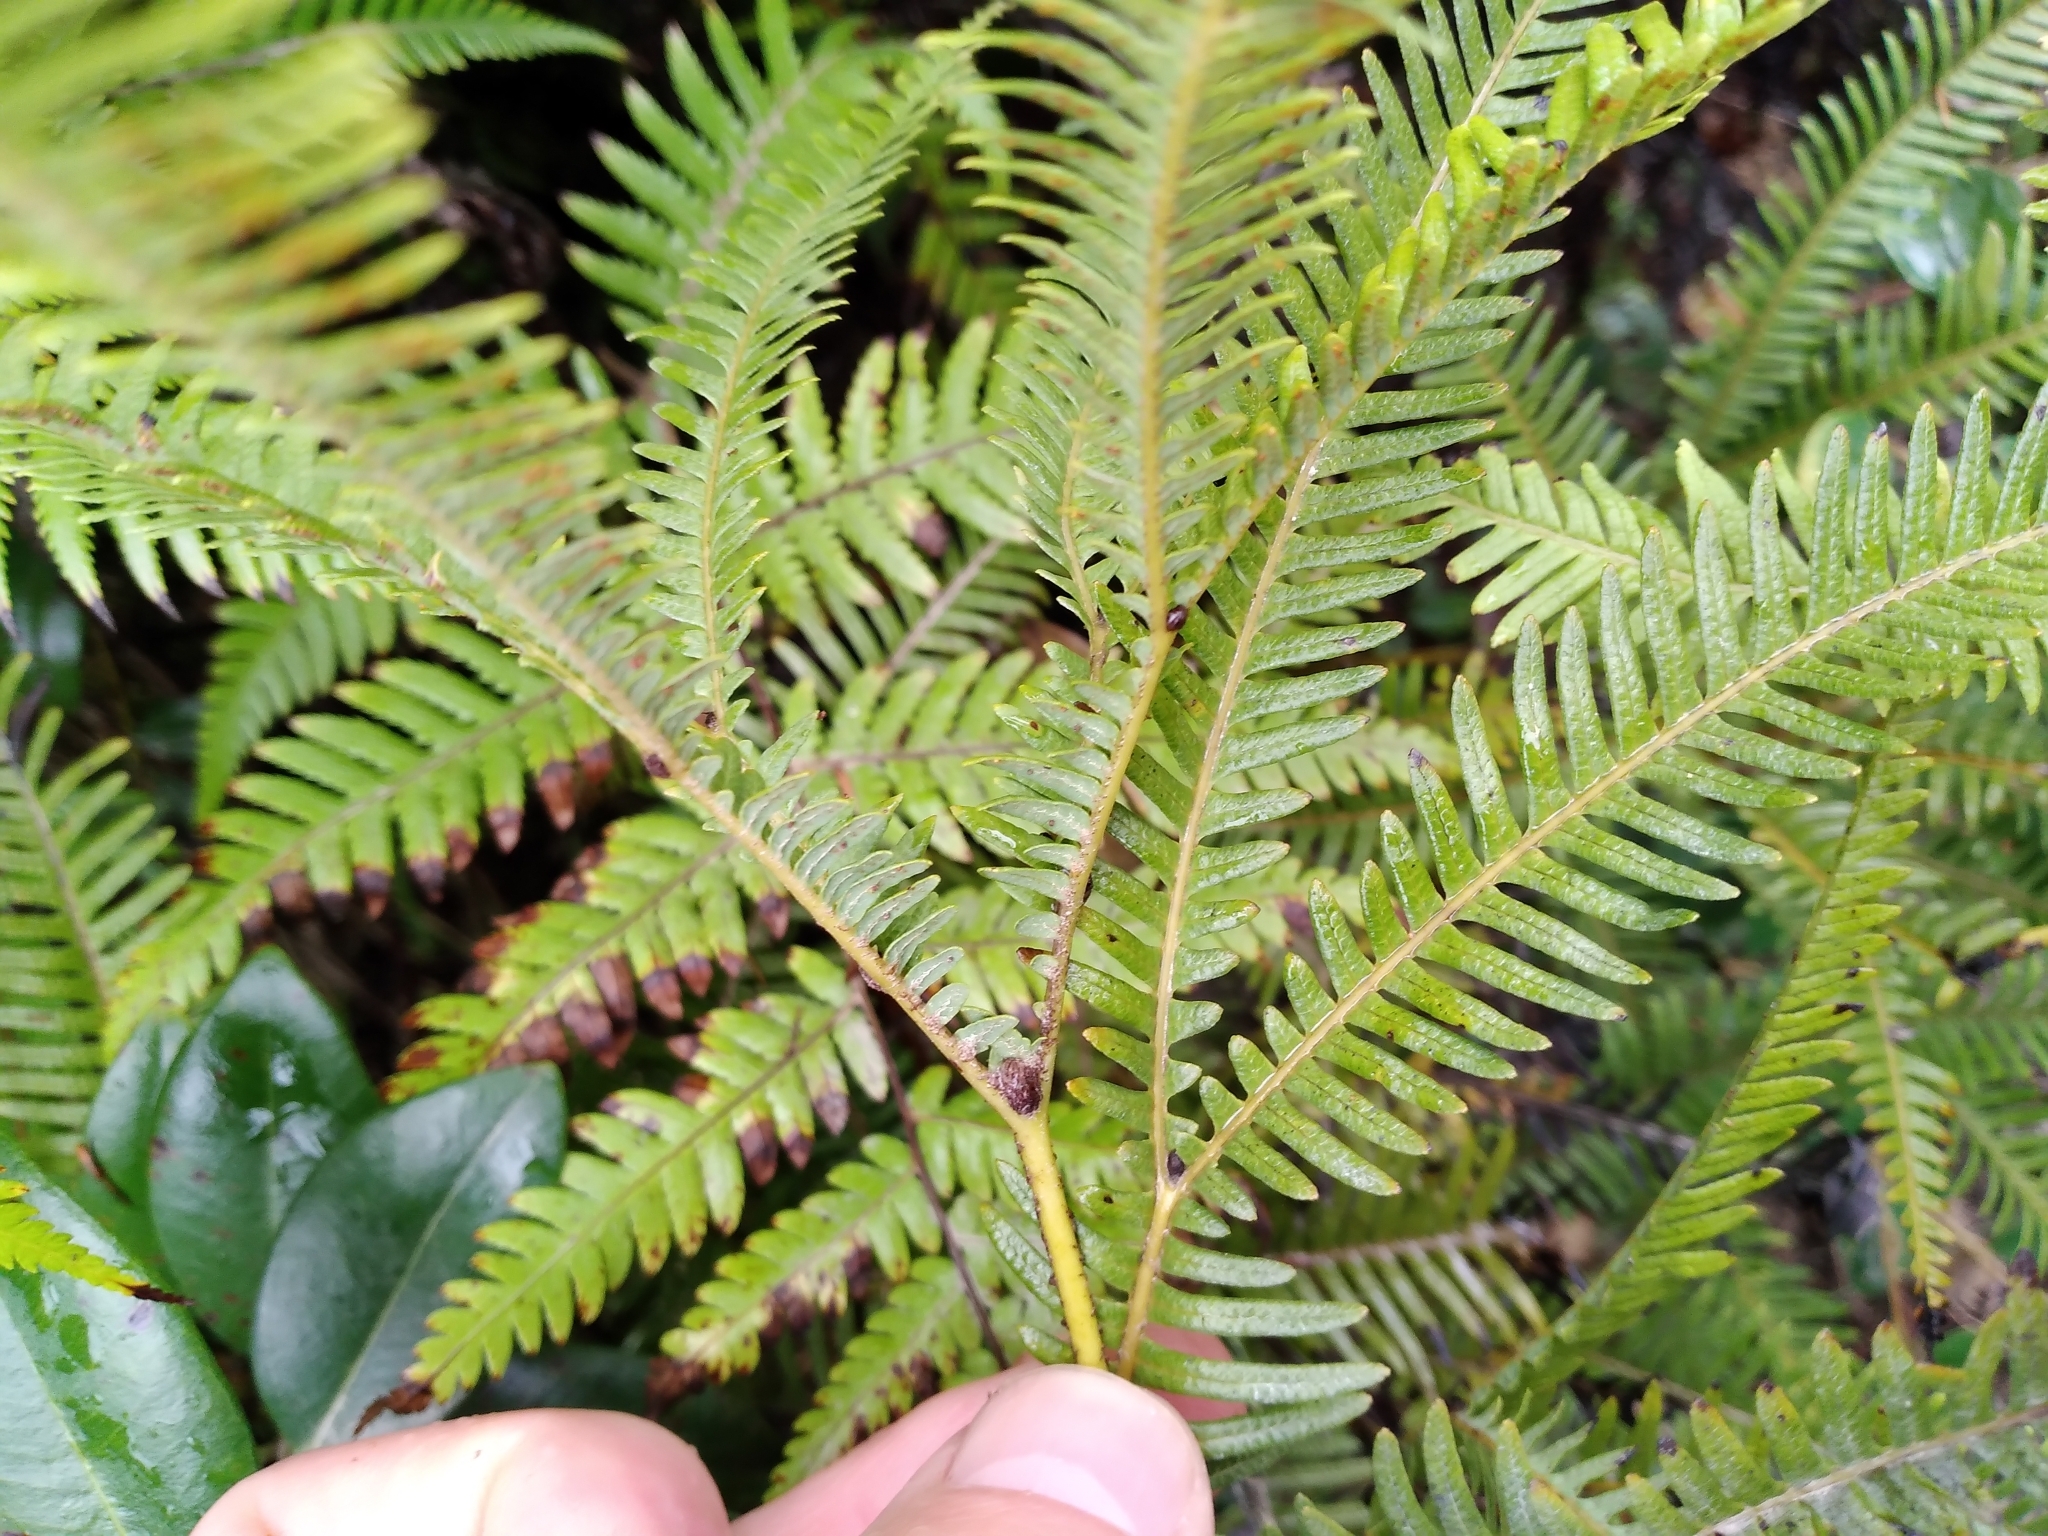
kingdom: Plantae
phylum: Tracheophyta
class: Polypodiopsida
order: Gleicheniales
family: Gleicheniaceae
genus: Sticherus
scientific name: Sticherus urceolatus
